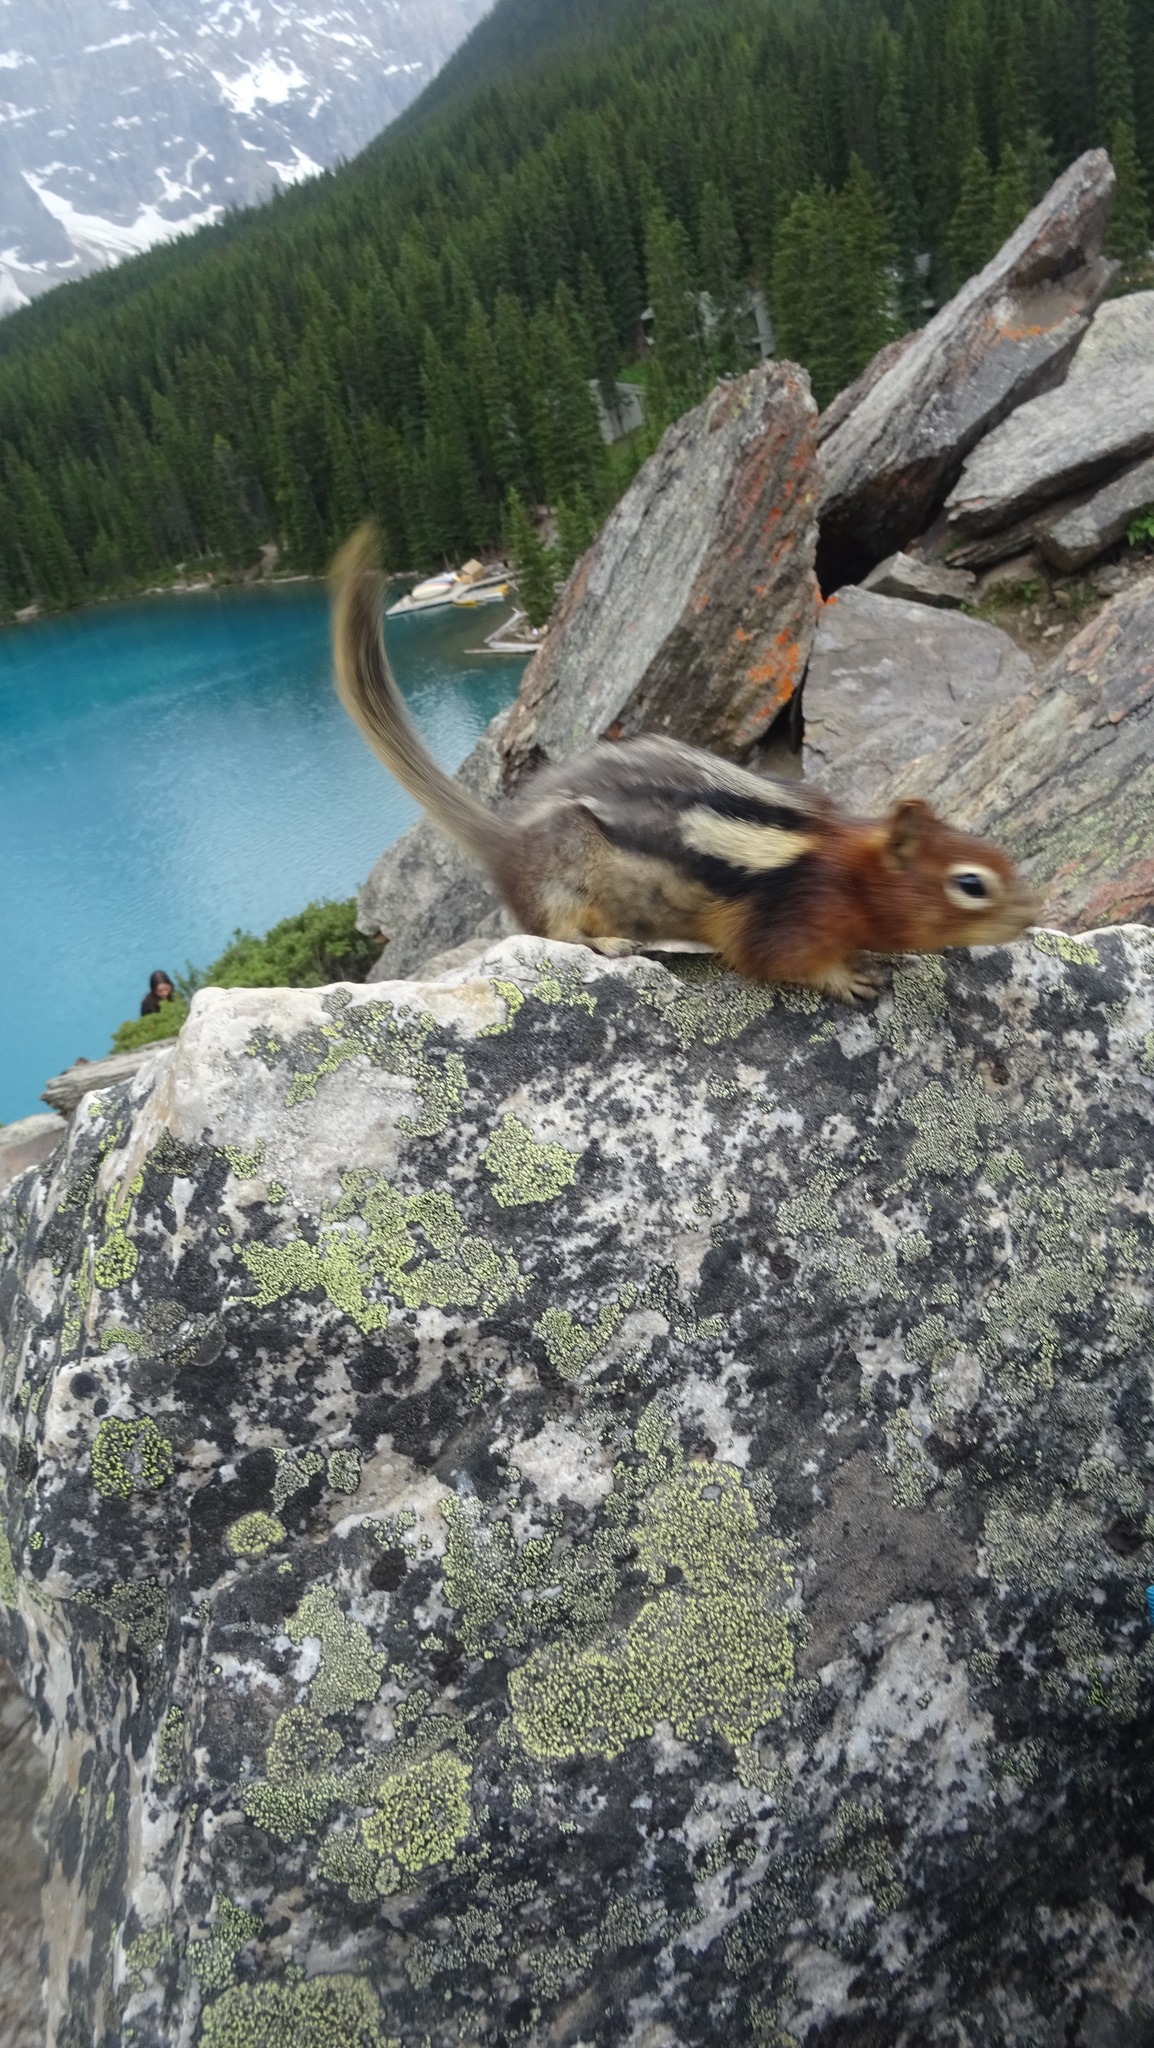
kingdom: Animalia
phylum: Chordata
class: Mammalia
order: Rodentia
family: Sciuridae
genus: Callospermophilus
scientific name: Callospermophilus lateralis
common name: Golden-mantled ground squirrel
